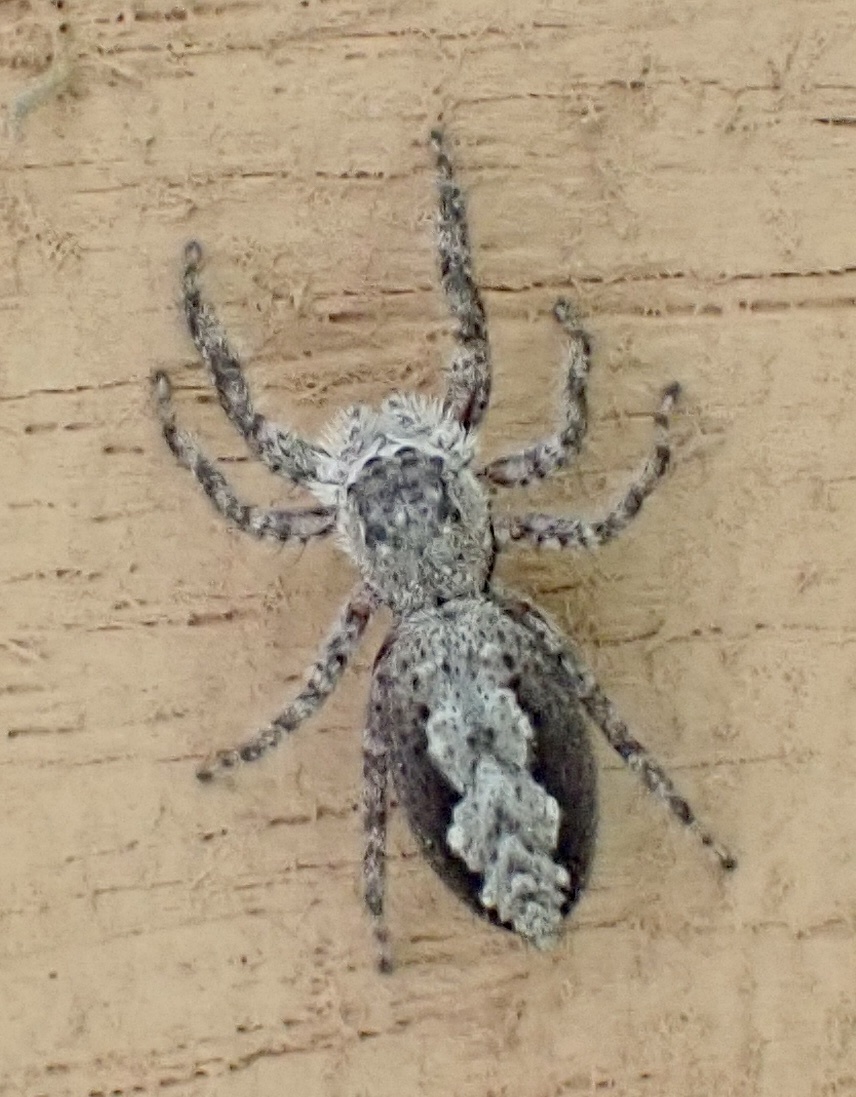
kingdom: Animalia
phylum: Arthropoda
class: Arachnida
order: Araneae
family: Salticidae
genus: Platycryptus
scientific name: Platycryptus undatus
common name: Tan jumping spider
